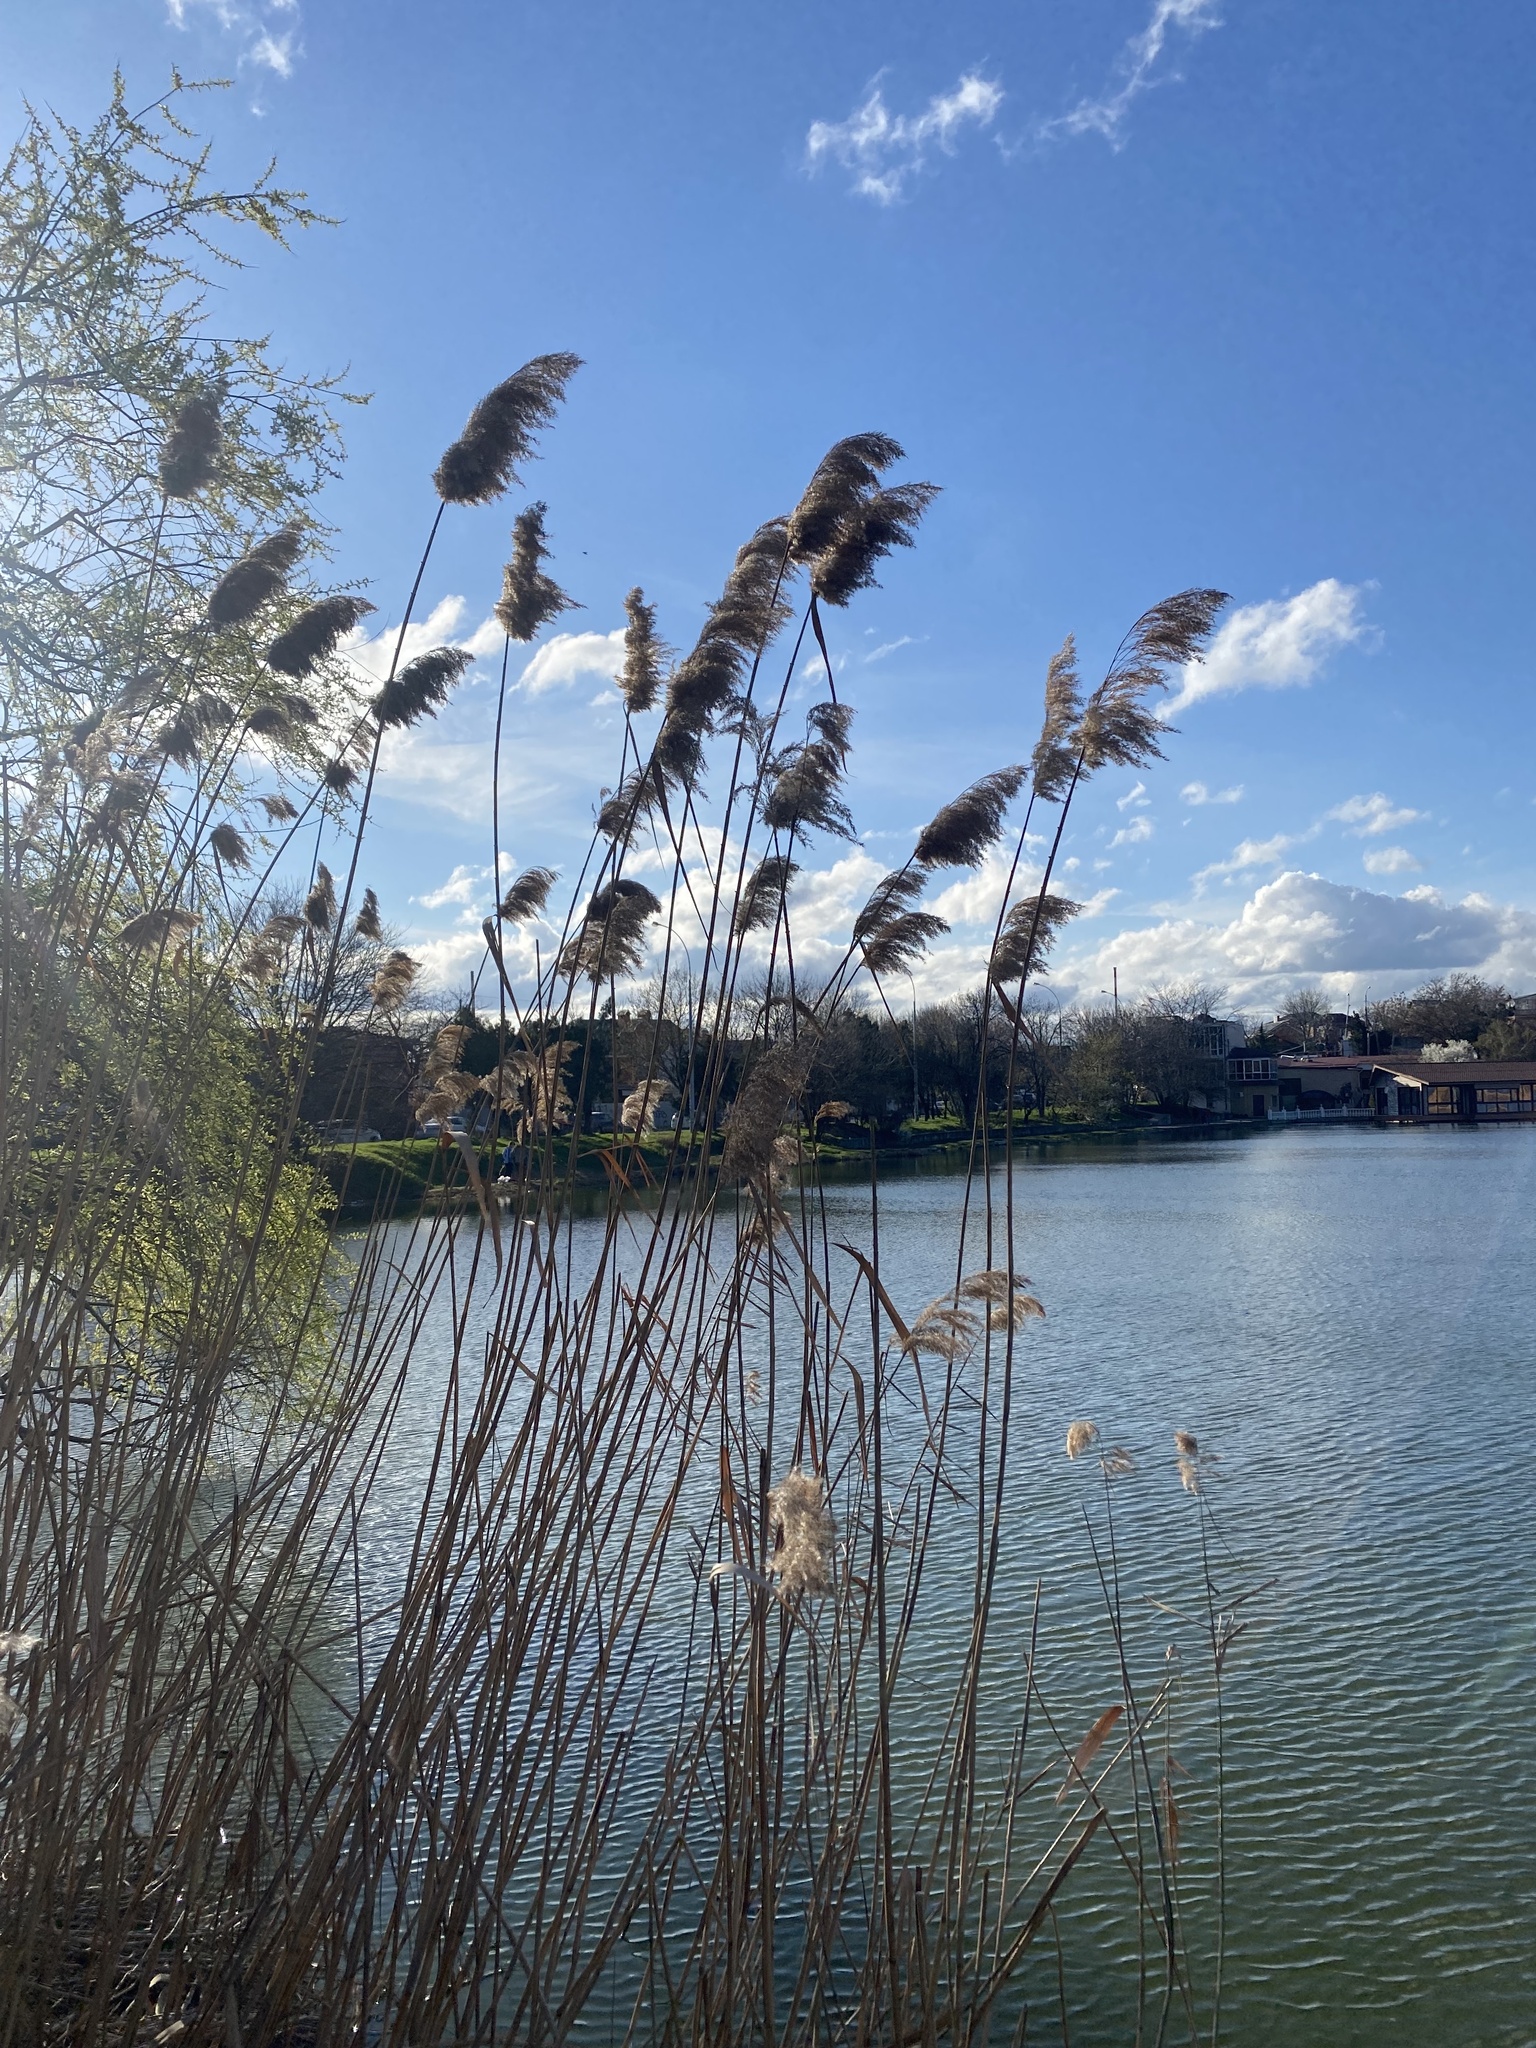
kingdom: Plantae
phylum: Tracheophyta
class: Liliopsida
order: Poales
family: Poaceae
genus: Phragmites
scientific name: Phragmites australis
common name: Common reed
